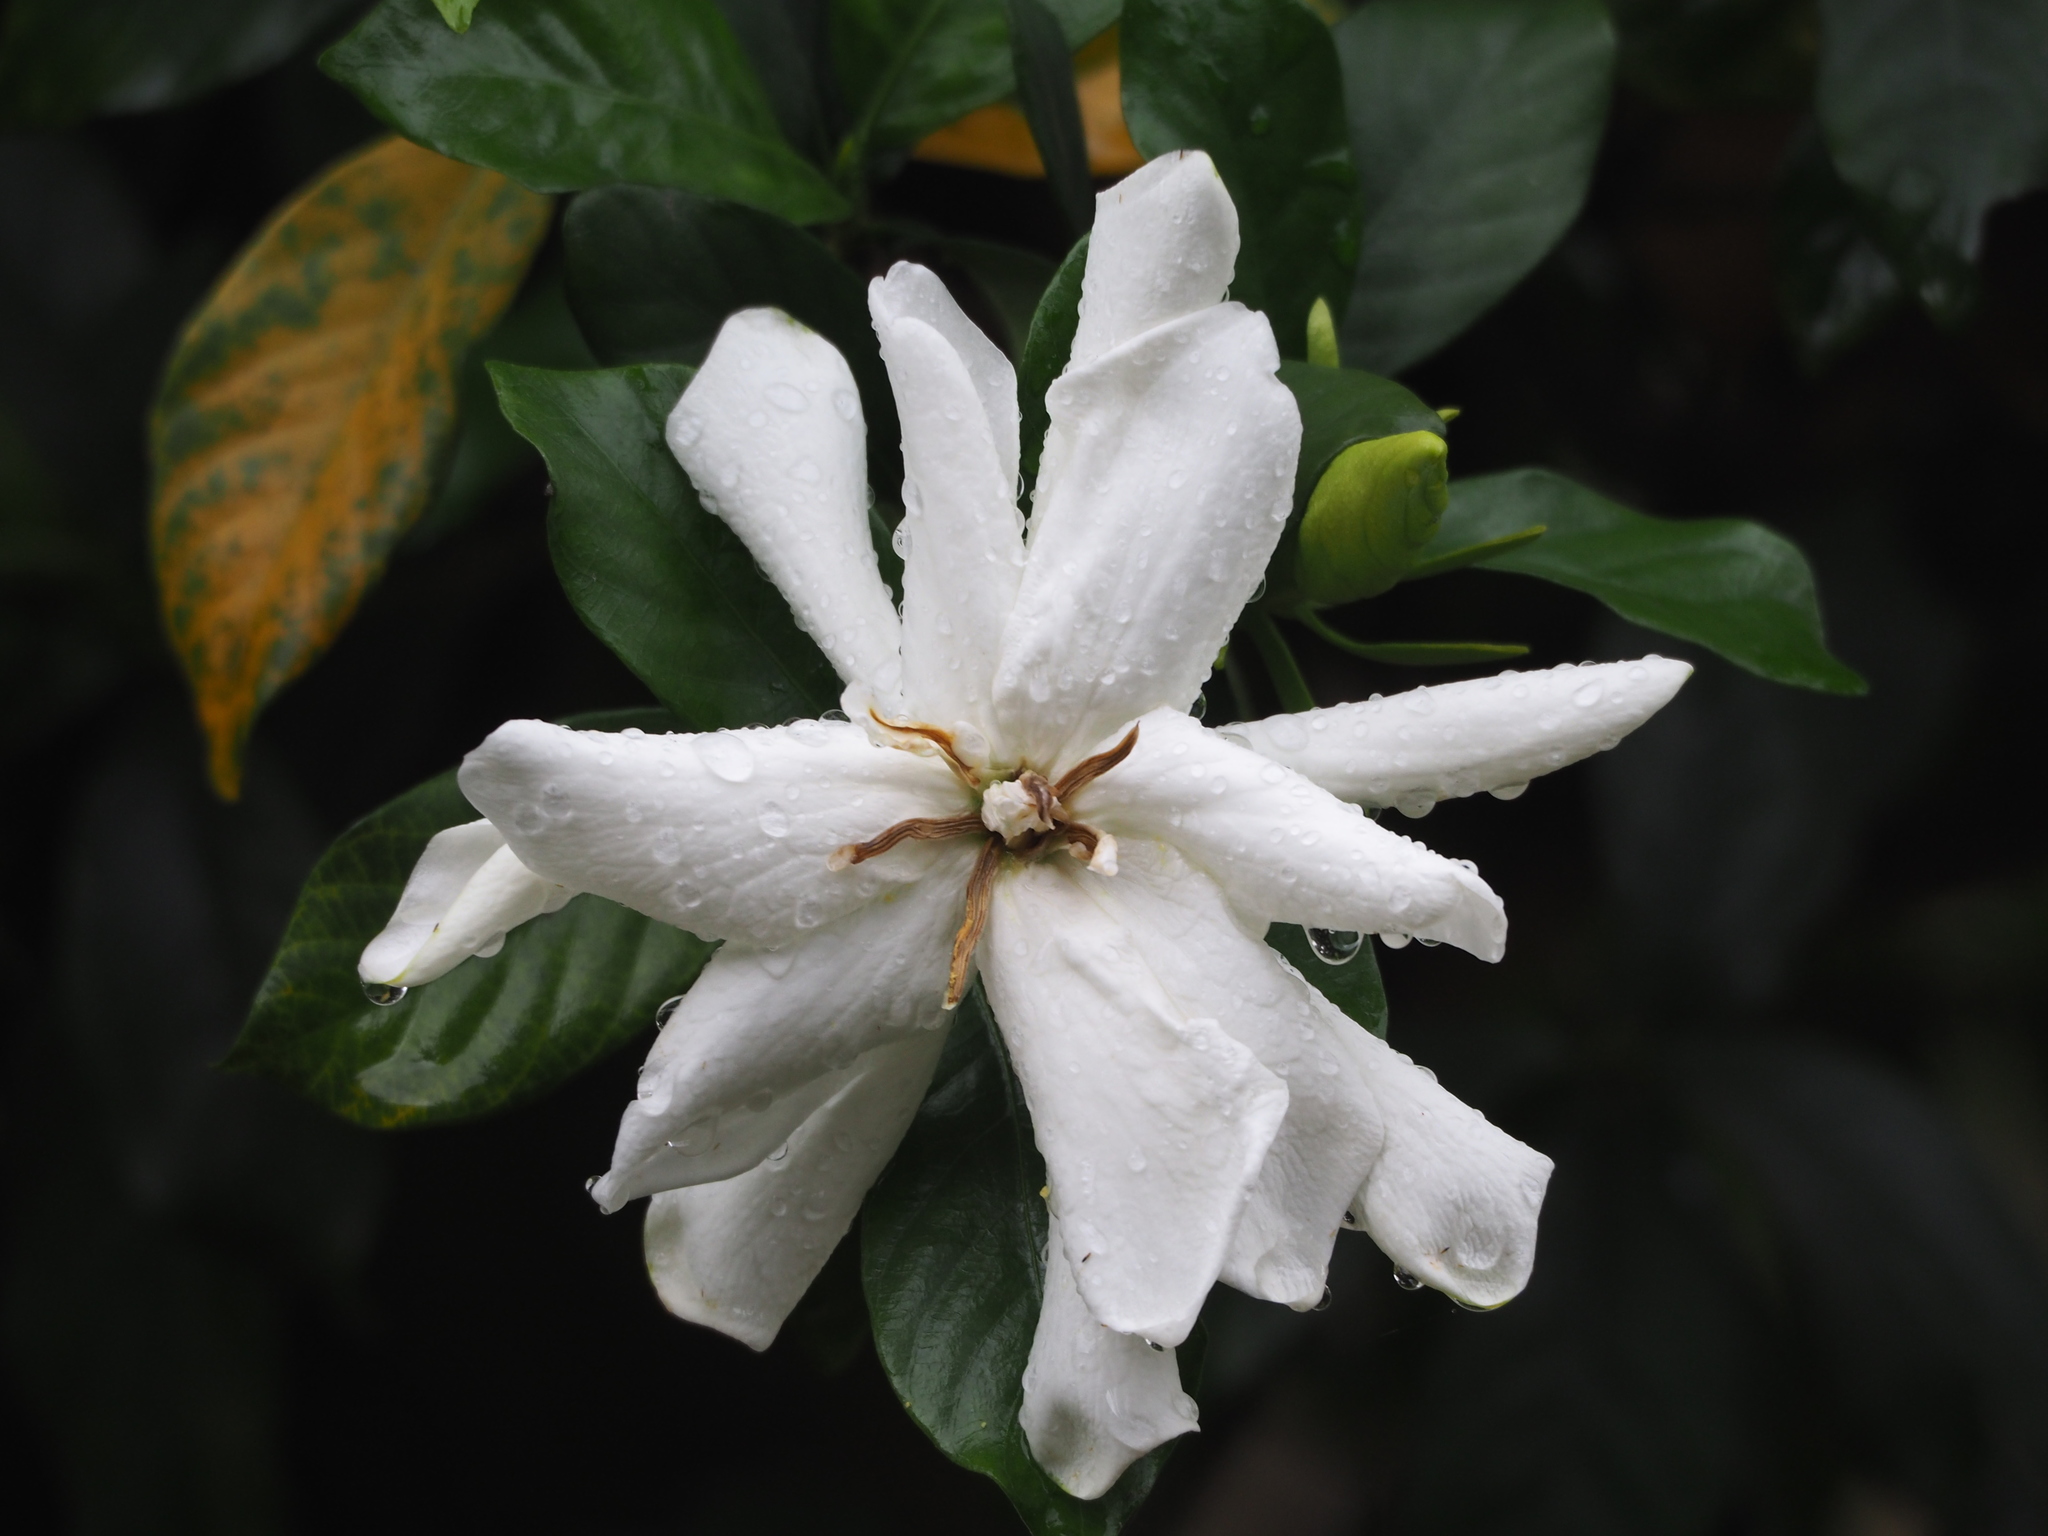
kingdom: Plantae
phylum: Tracheophyta
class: Magnoliopsida
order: Gentianales
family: Rubiaceae
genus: Gardenia
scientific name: Gardenia jasminoides
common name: Cape-jasmine
